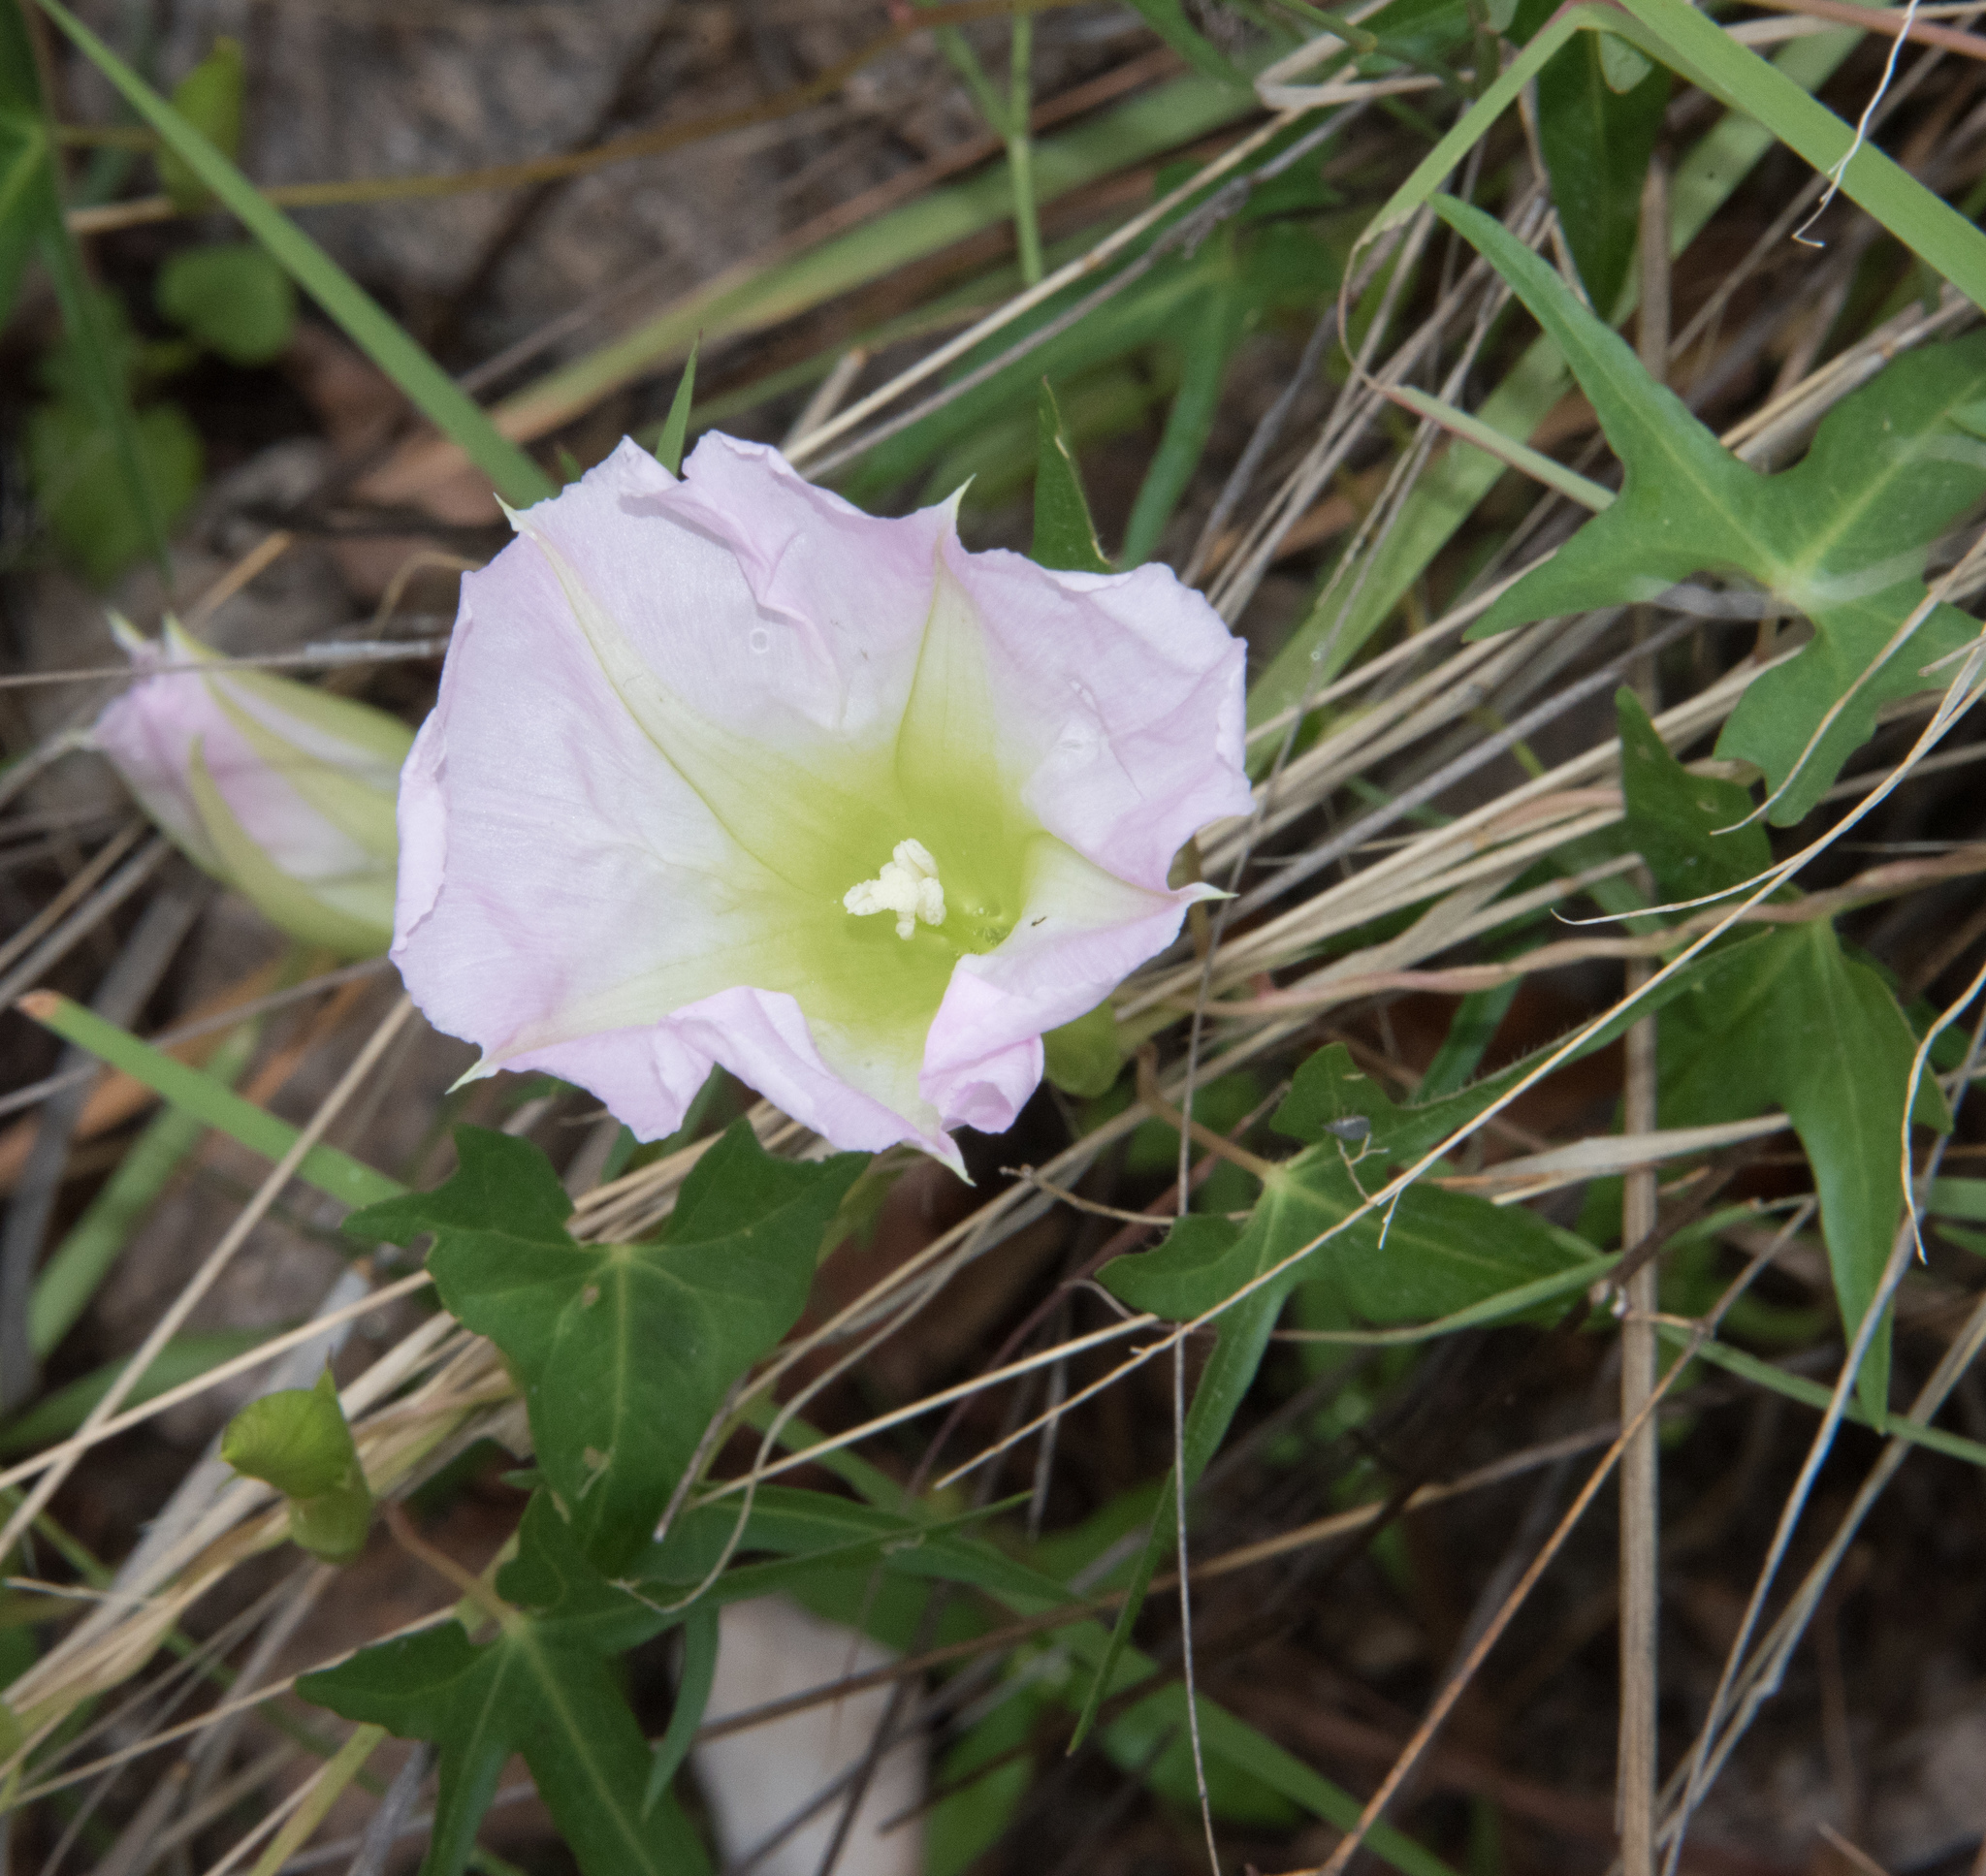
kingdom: Plantae
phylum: Tracheophyta
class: Magnoliopsida
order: Solanales
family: Convolvulaceae
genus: Ipomoea
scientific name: Ipomoea thurberi
